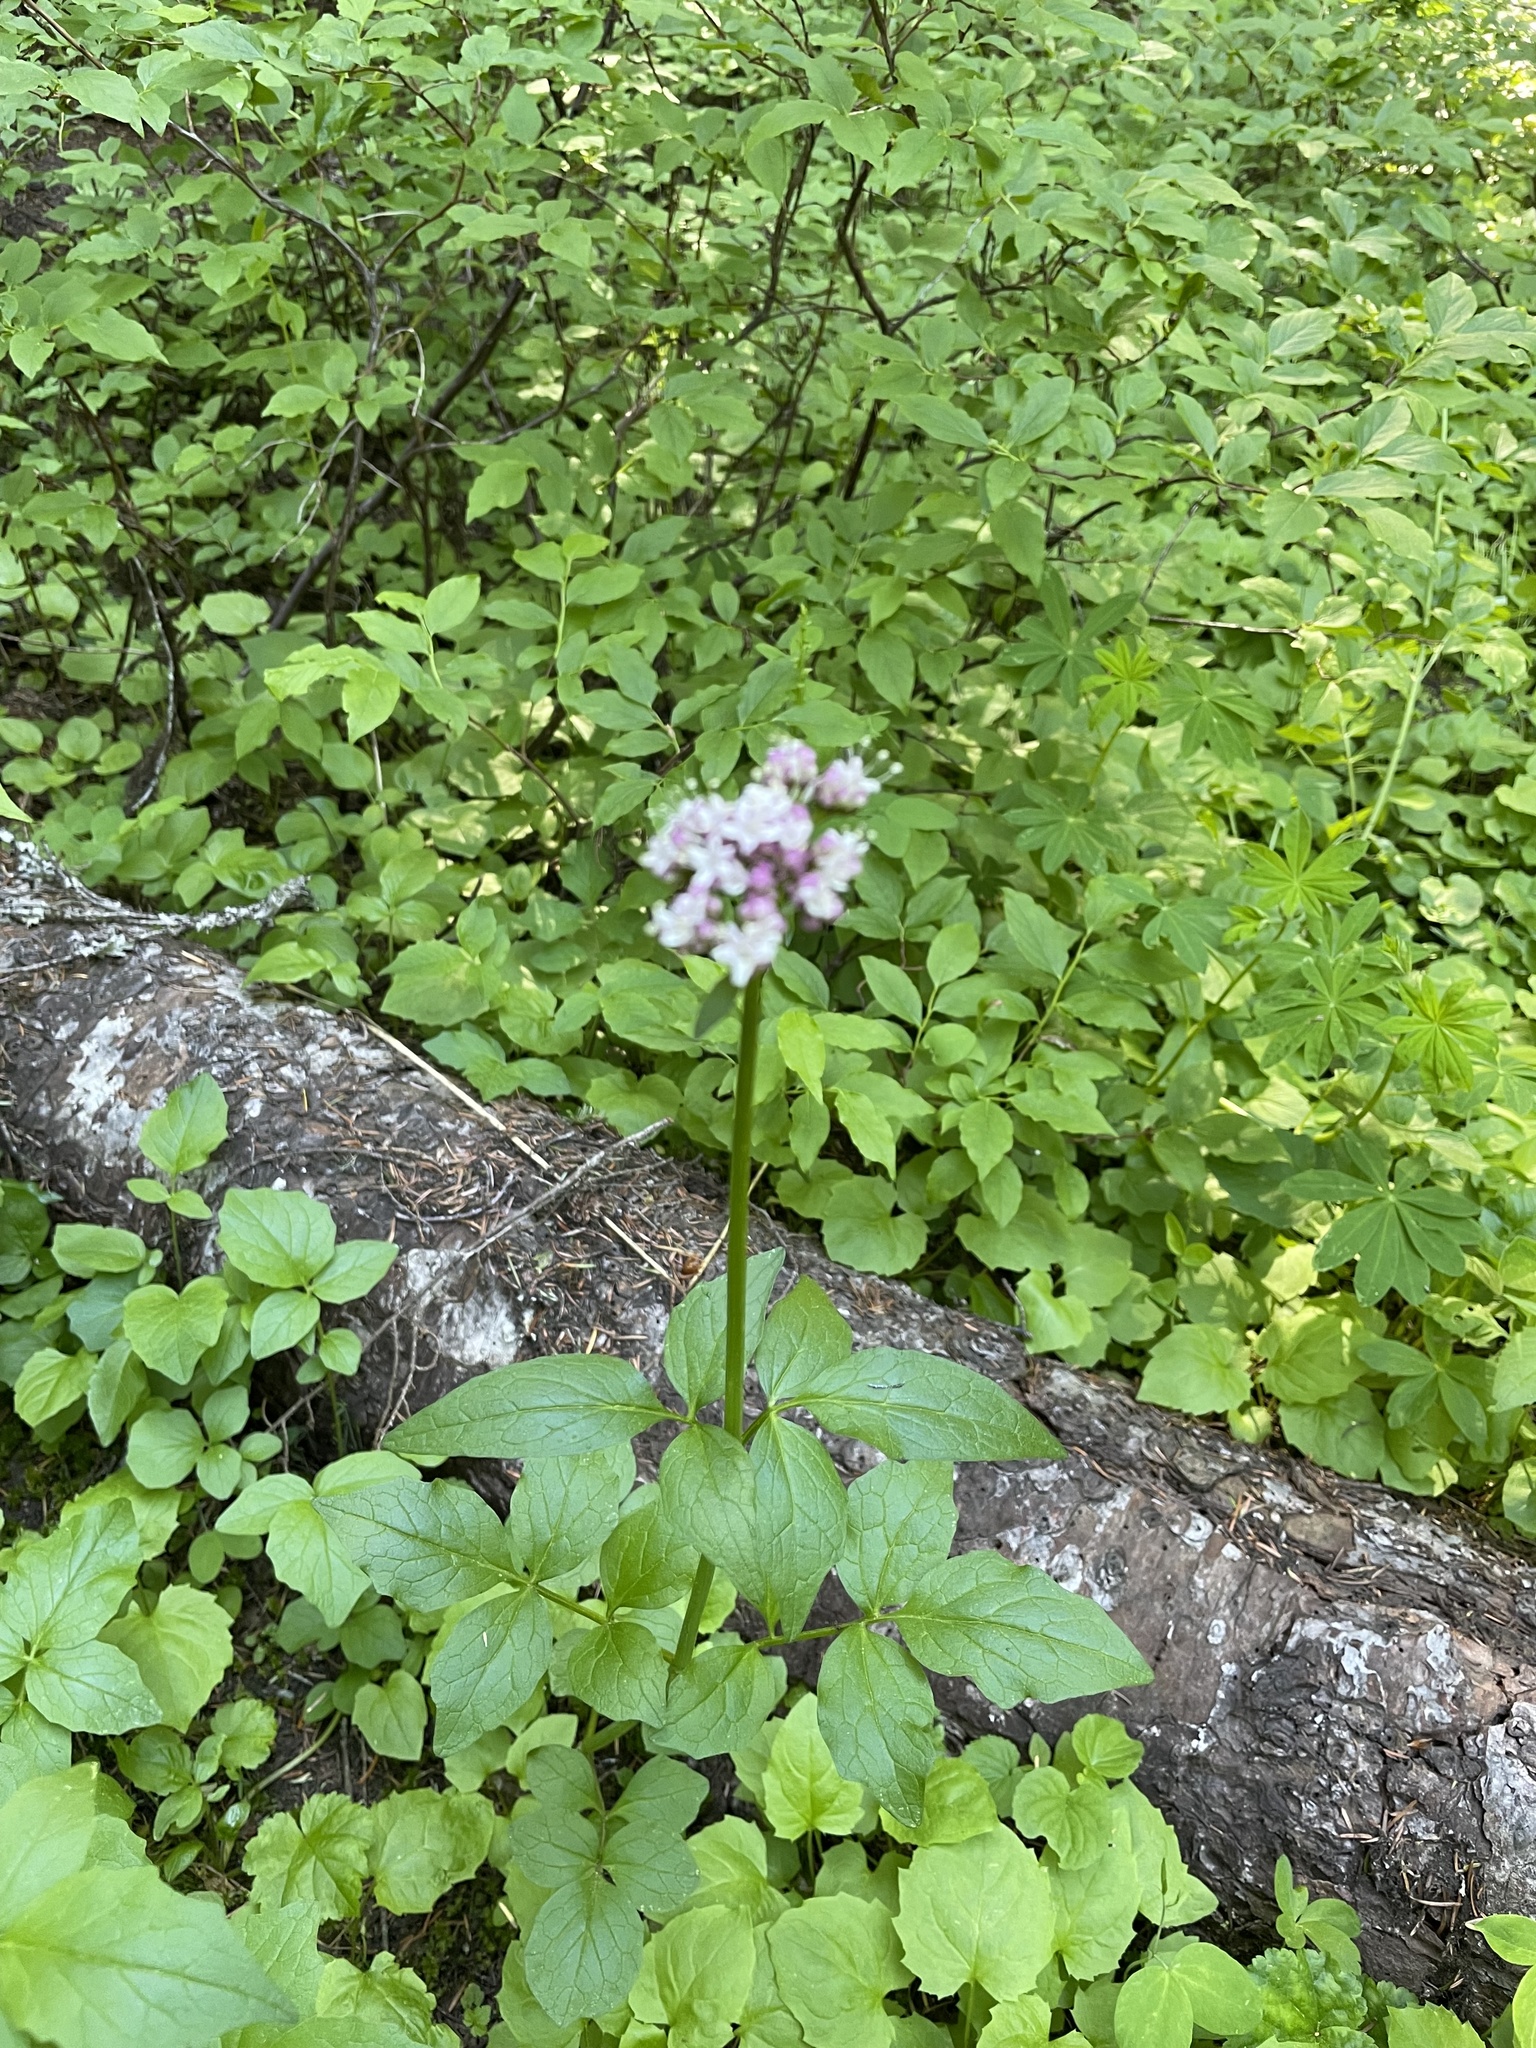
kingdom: Plantae
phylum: Tracheophyta
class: Magnoliopsida
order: Dipsacales
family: Caprifoliaceae
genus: Valeriana
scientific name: Valeriana sitchensis
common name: Pacific valerian
